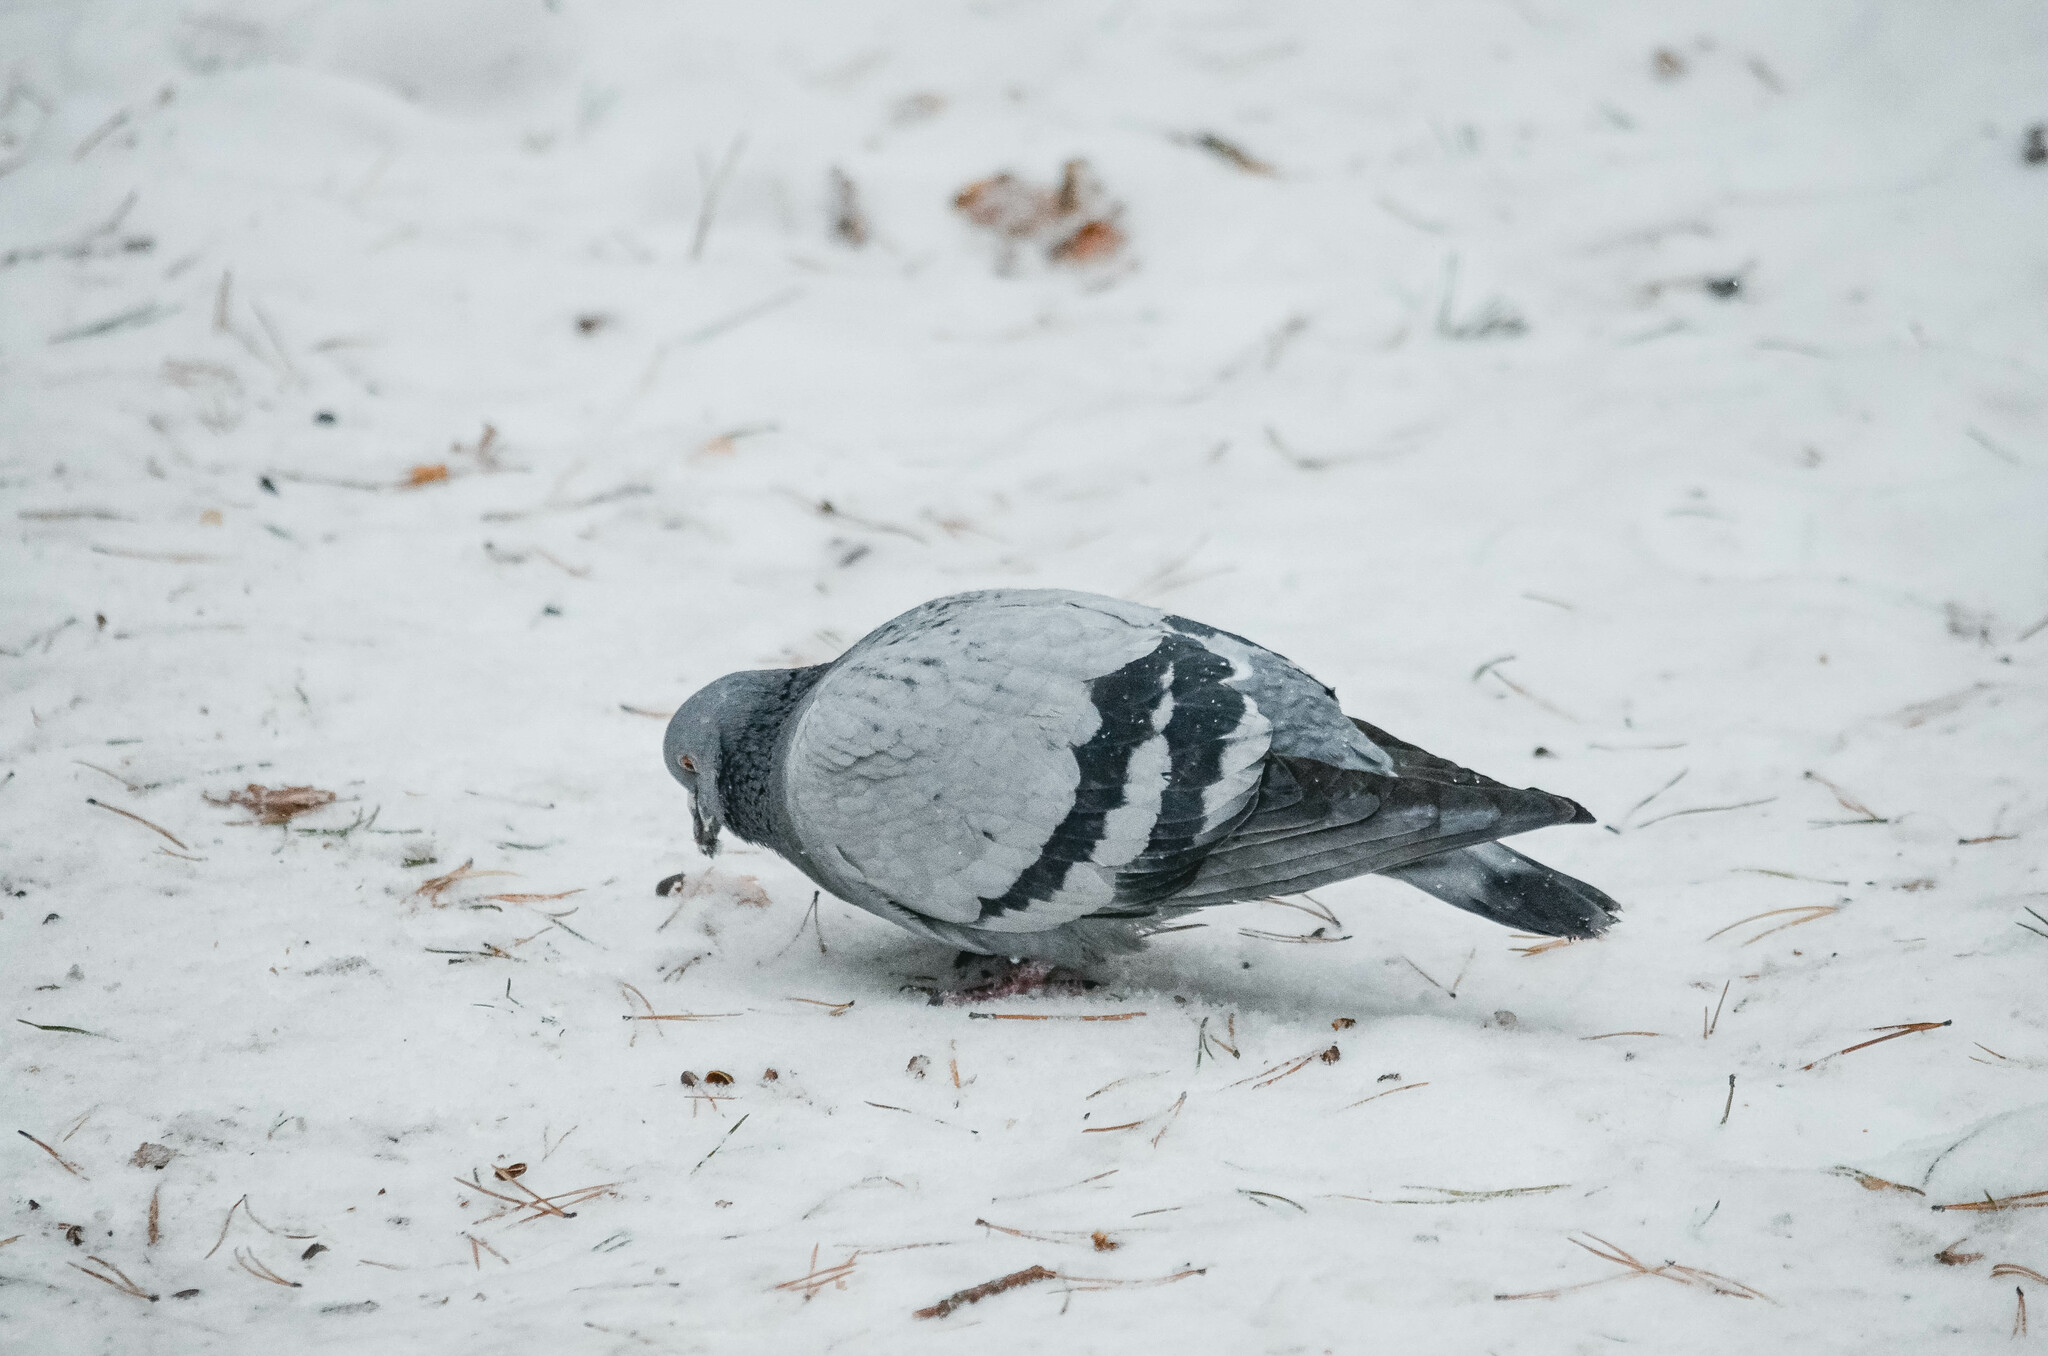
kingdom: Animalia
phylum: Chordata
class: Aves
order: Columbiformes
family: Columbidae
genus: Columba
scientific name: Columba livia
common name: Rock pigeon
